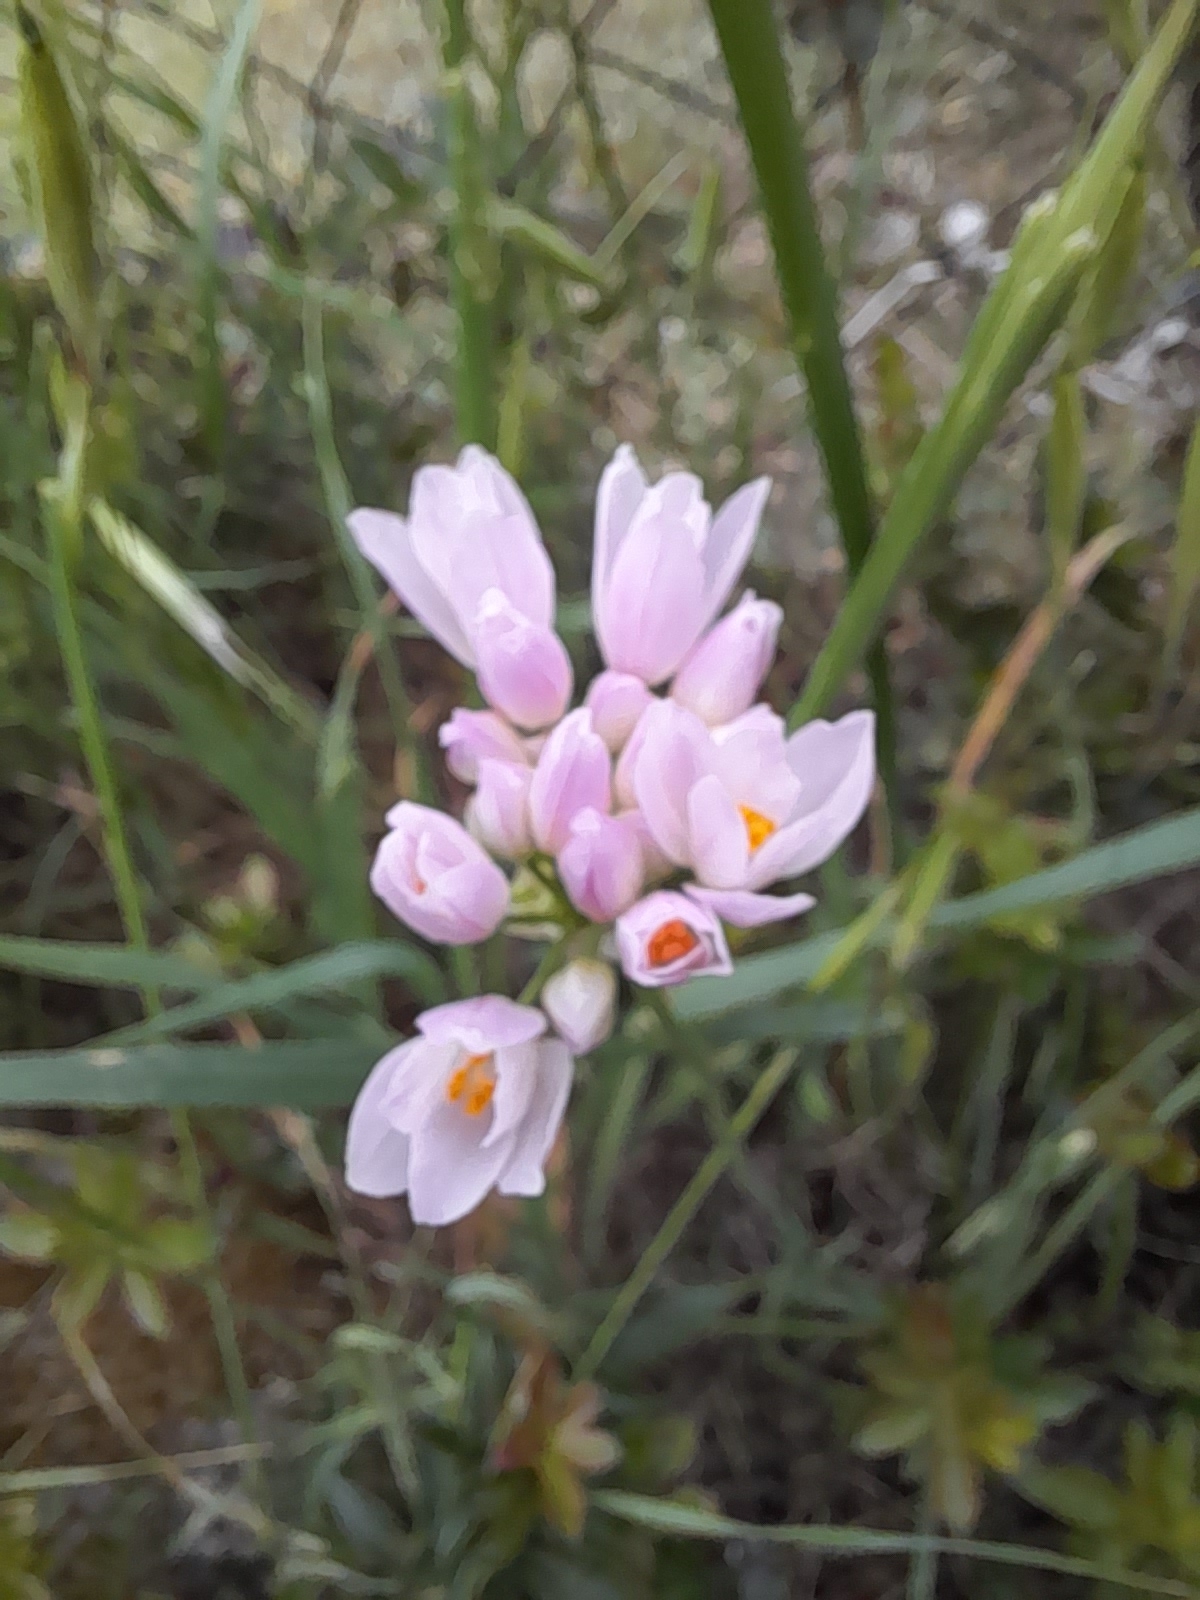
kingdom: Plantae
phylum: Tracheophyta
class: Liliopsida
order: Asparagales
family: Amaryllidaceae
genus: Allium
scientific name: Allium roseum
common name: Rosy garlic
